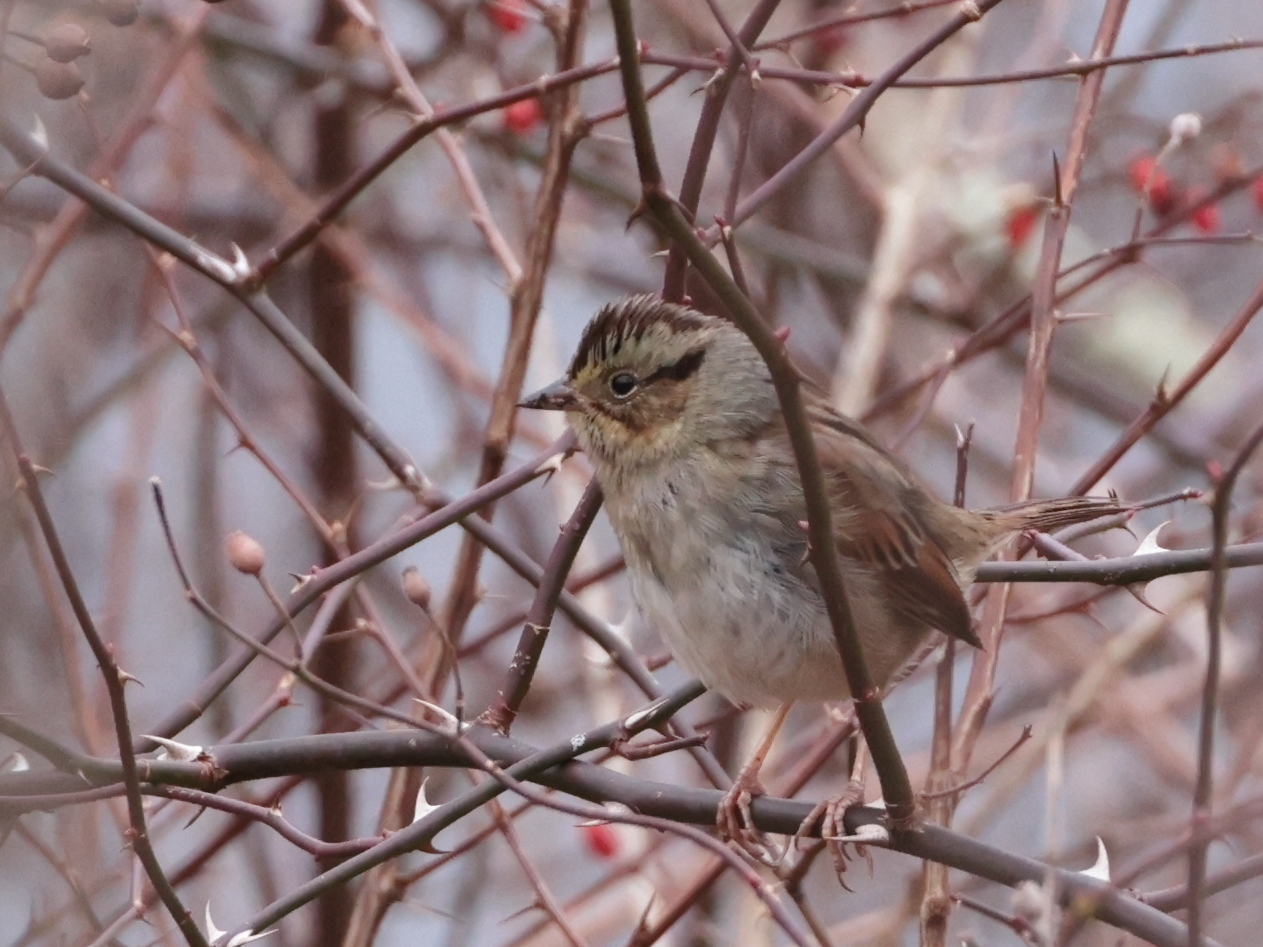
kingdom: Animalia
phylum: Chordata
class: Aves
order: Passeriformes
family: Passerellidae
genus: Melospiza
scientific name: Melospiza georgiana
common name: Swamp sparrow
